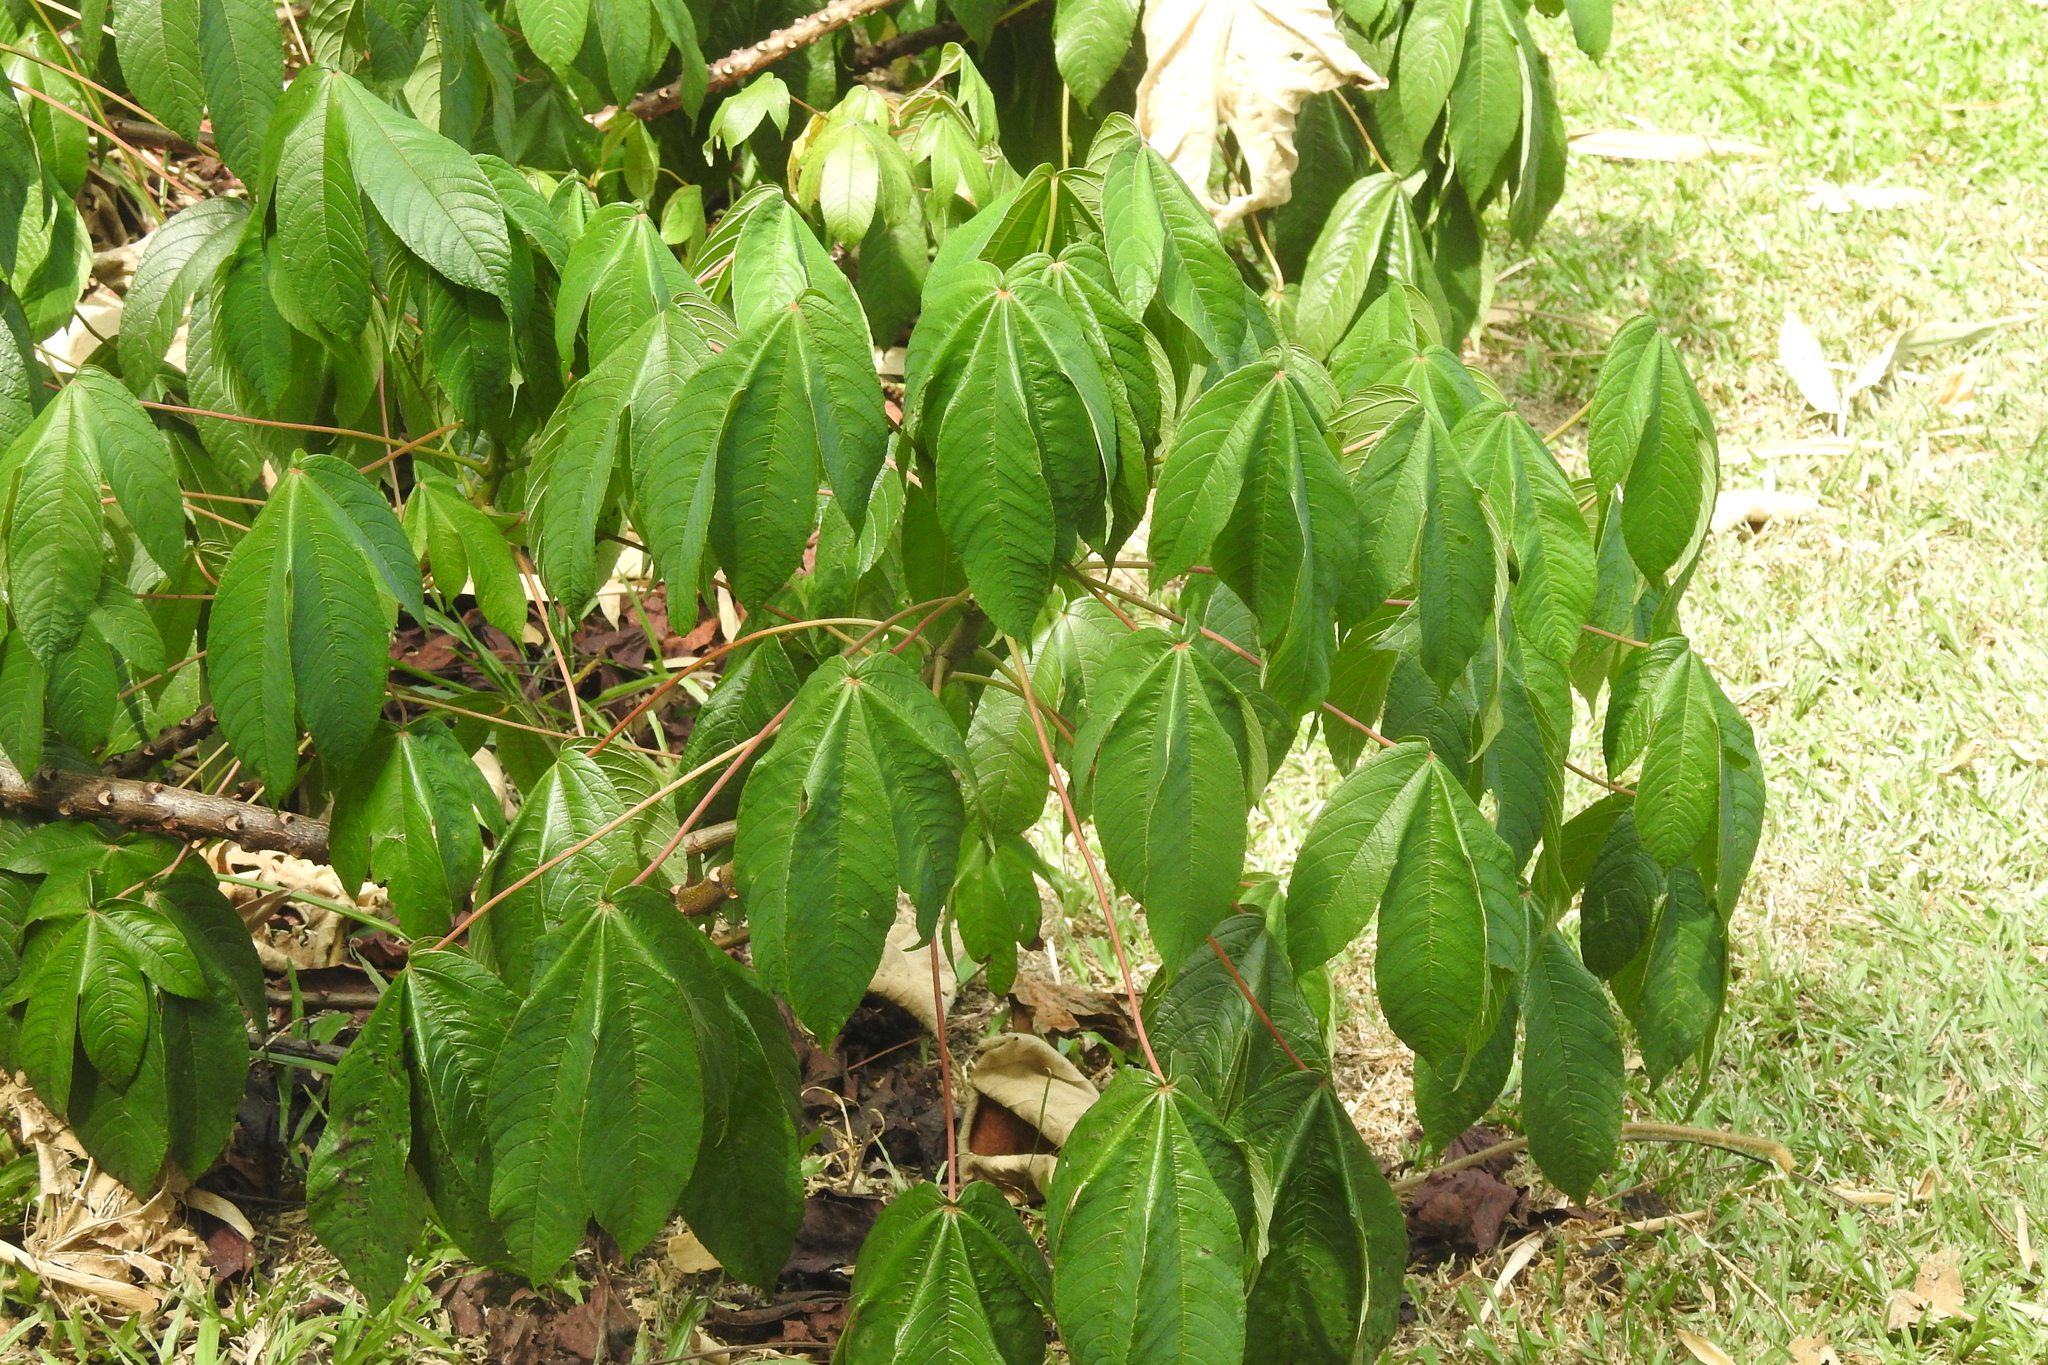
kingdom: Plantae
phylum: Tracheophyta
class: Magnoliopsida
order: Malvales
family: Cochlospermaceae
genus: Cochlospermum
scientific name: Cochlospermum religiosum
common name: Cottontree
